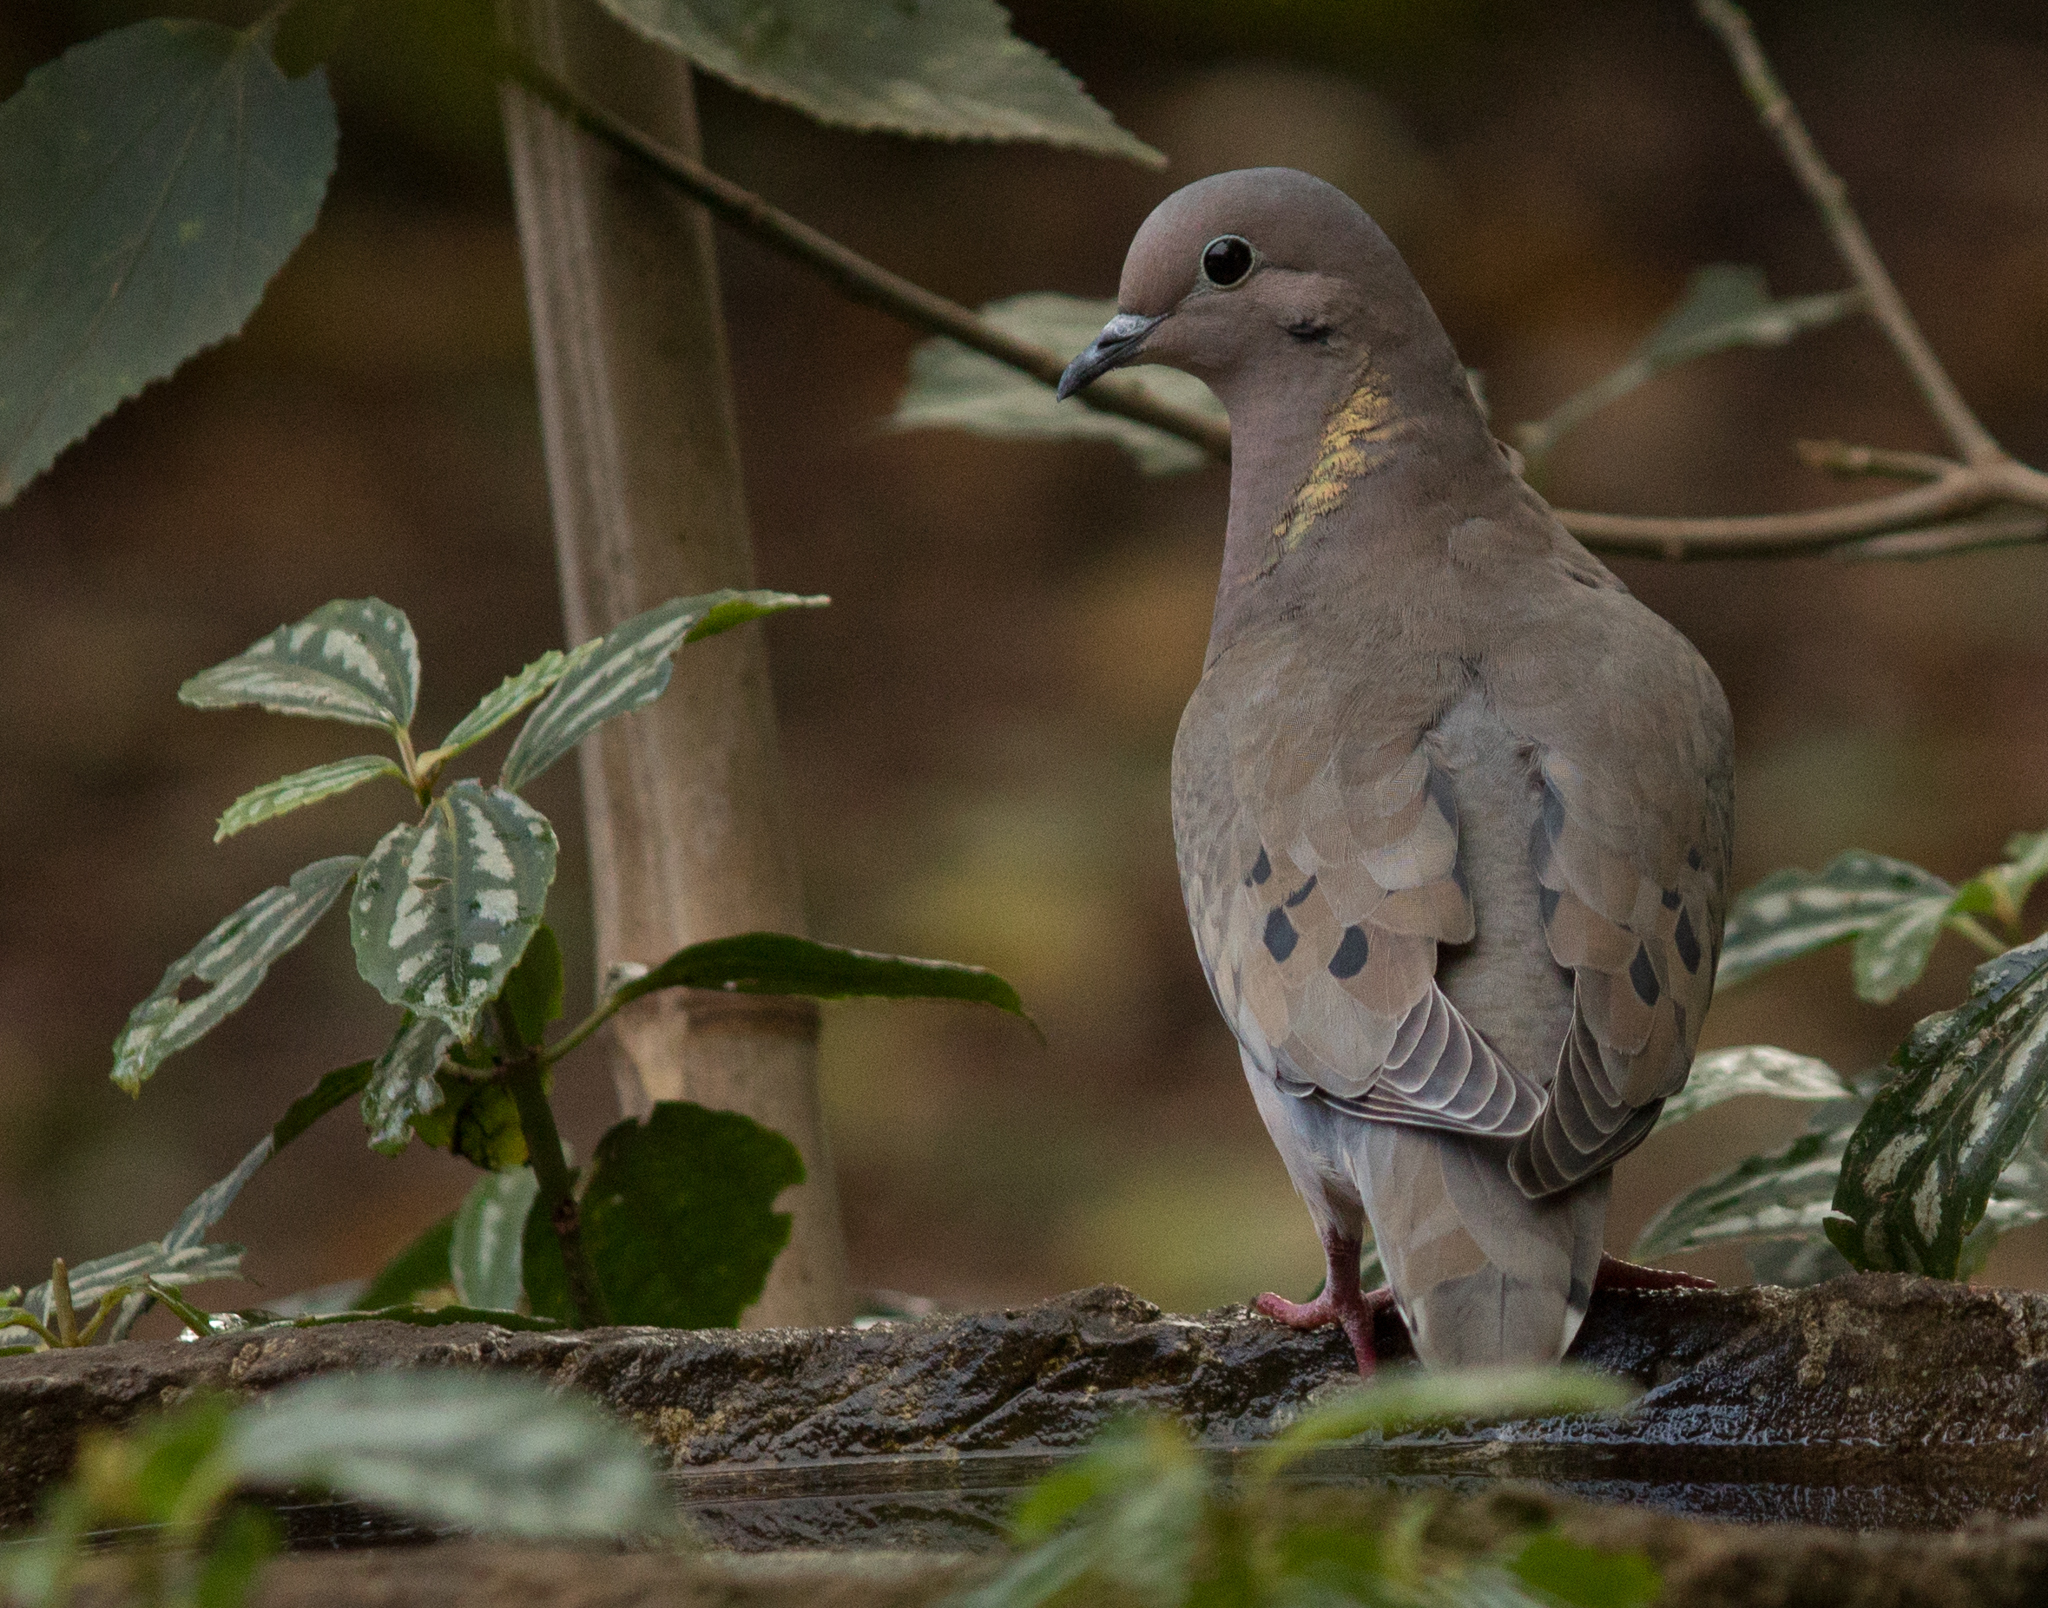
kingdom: Animalia
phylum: Chordata
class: Aves
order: Columbiformes
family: Columbidae
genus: Zenaida
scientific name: Zenaida auriculata
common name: Eared dove
